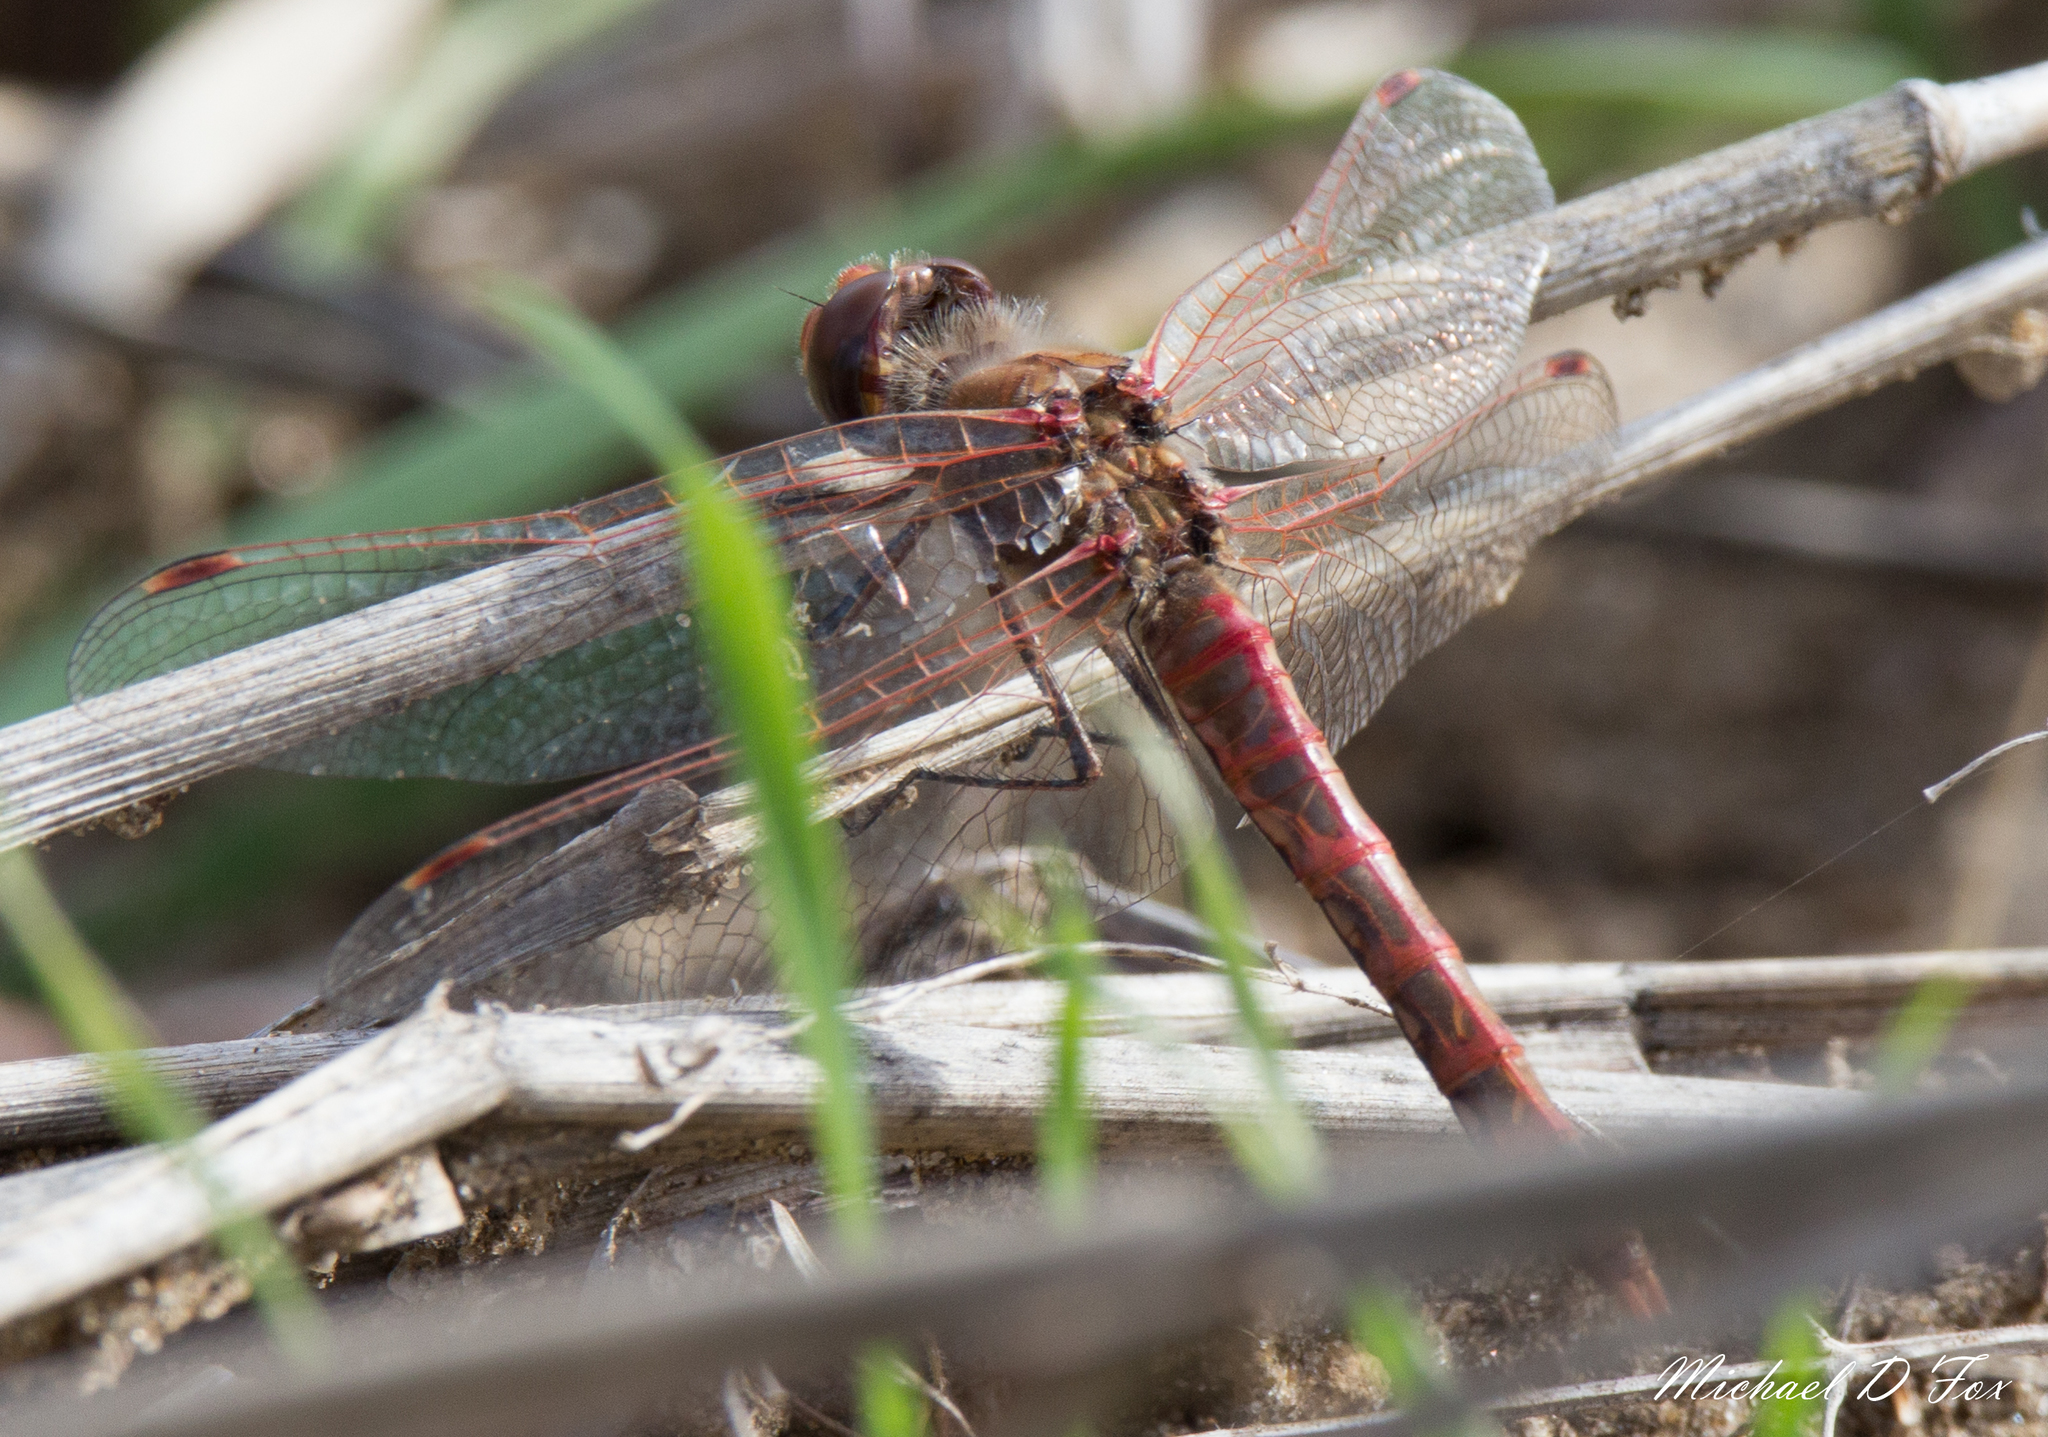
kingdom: Animalia
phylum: Arthropoda
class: Insecta
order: Odonata
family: Libellulidae
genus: Sympetrum
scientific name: Sympetrum corruptum
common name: Variegated meadowhawk
